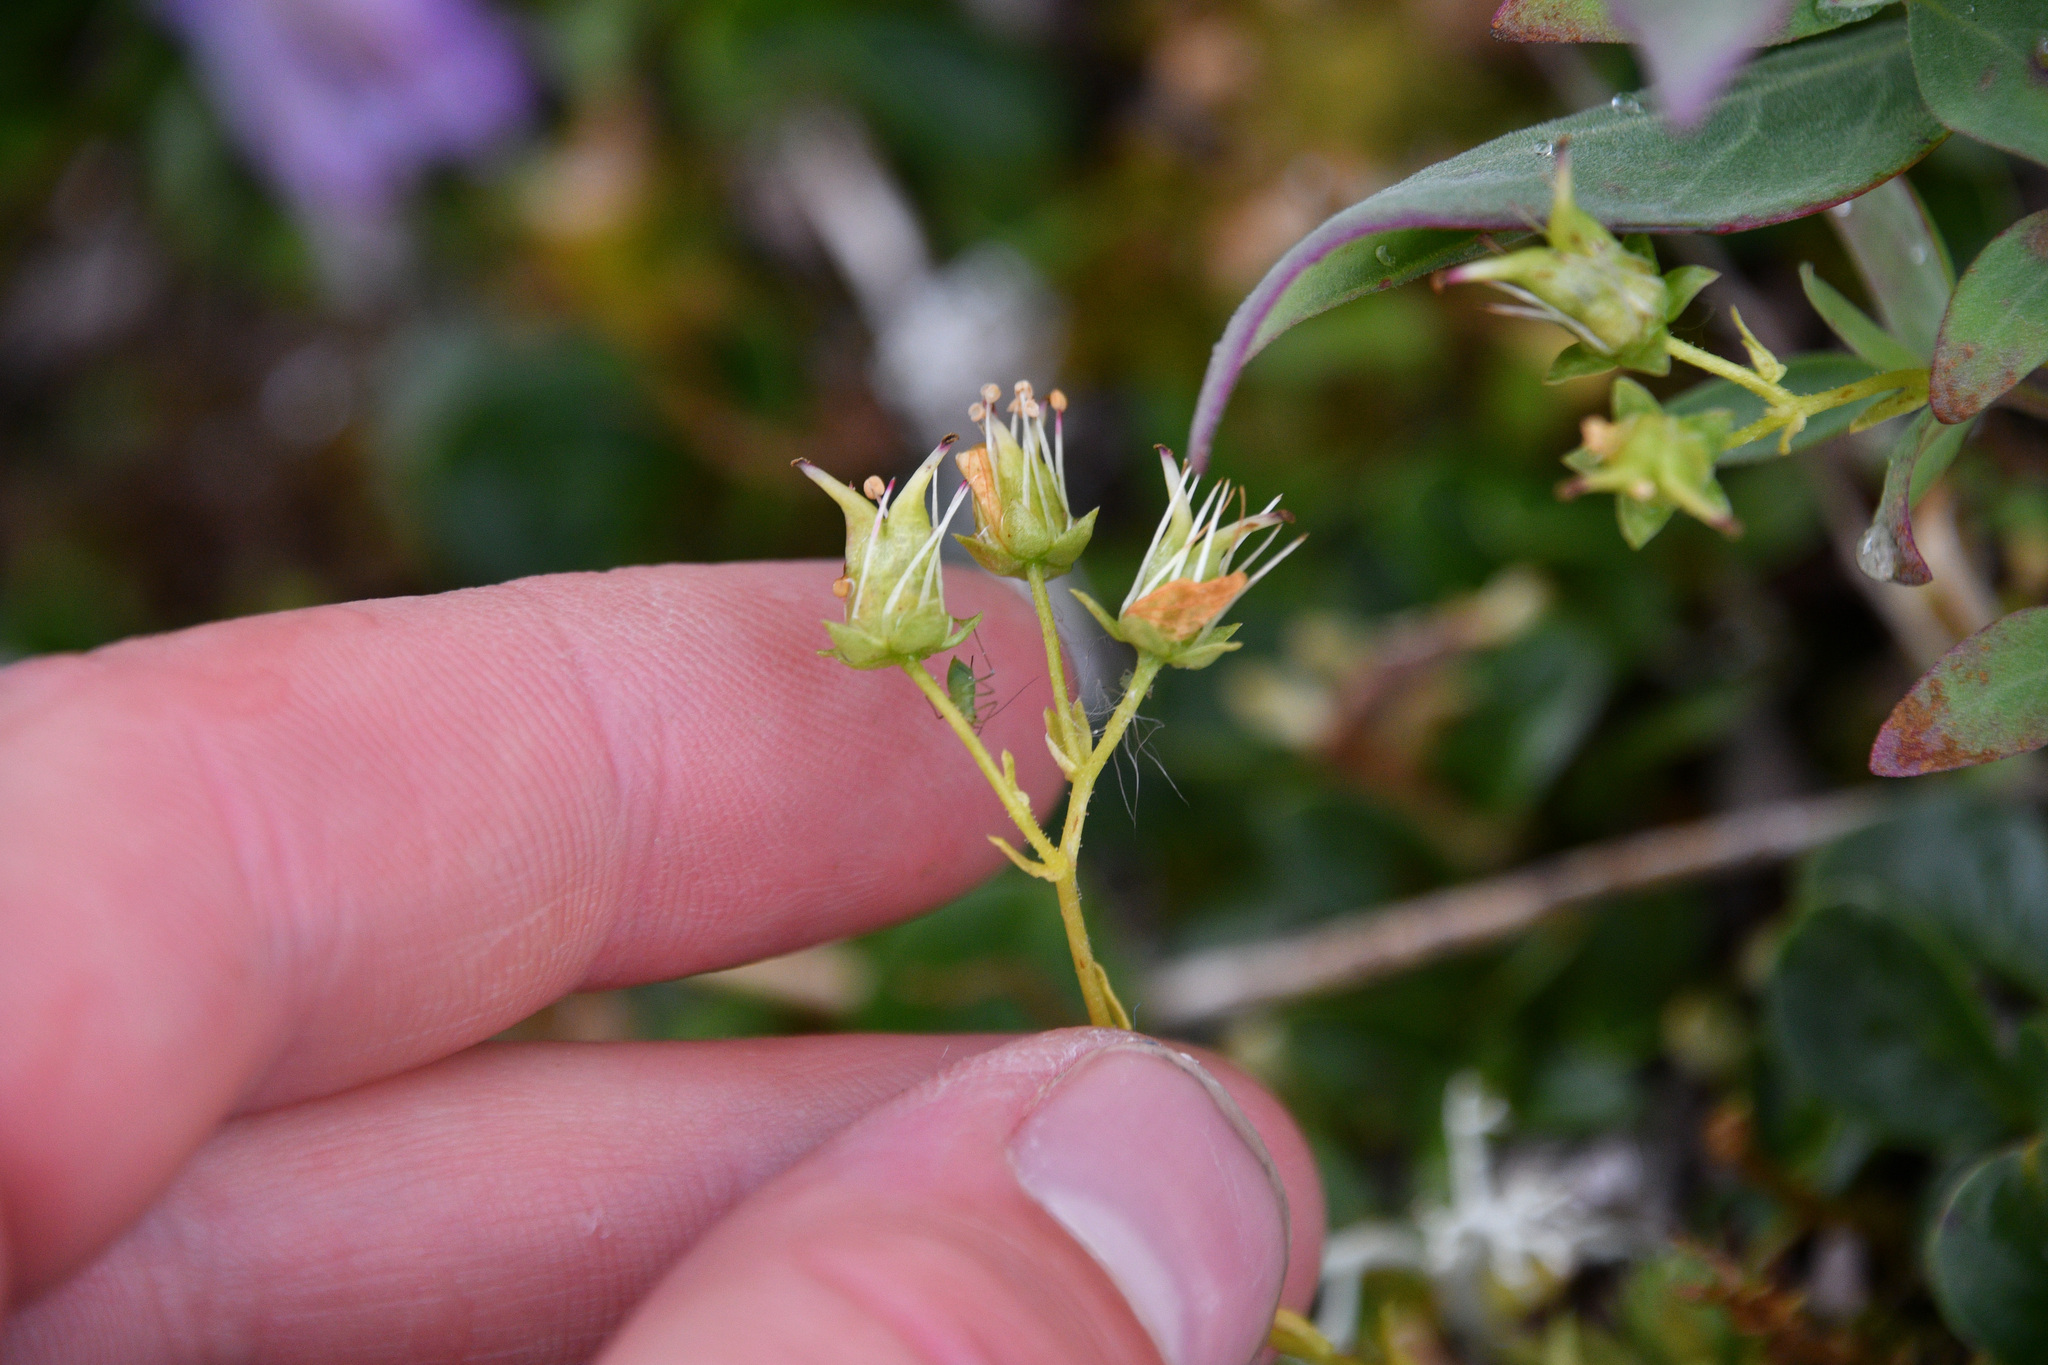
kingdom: Plantae
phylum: Tracheophyta
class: Magnoliopsida
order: Saxifragales
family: Saxifragaceae
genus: Saxifraga
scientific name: Saxifraga bronchialis
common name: Matted saxifrage
